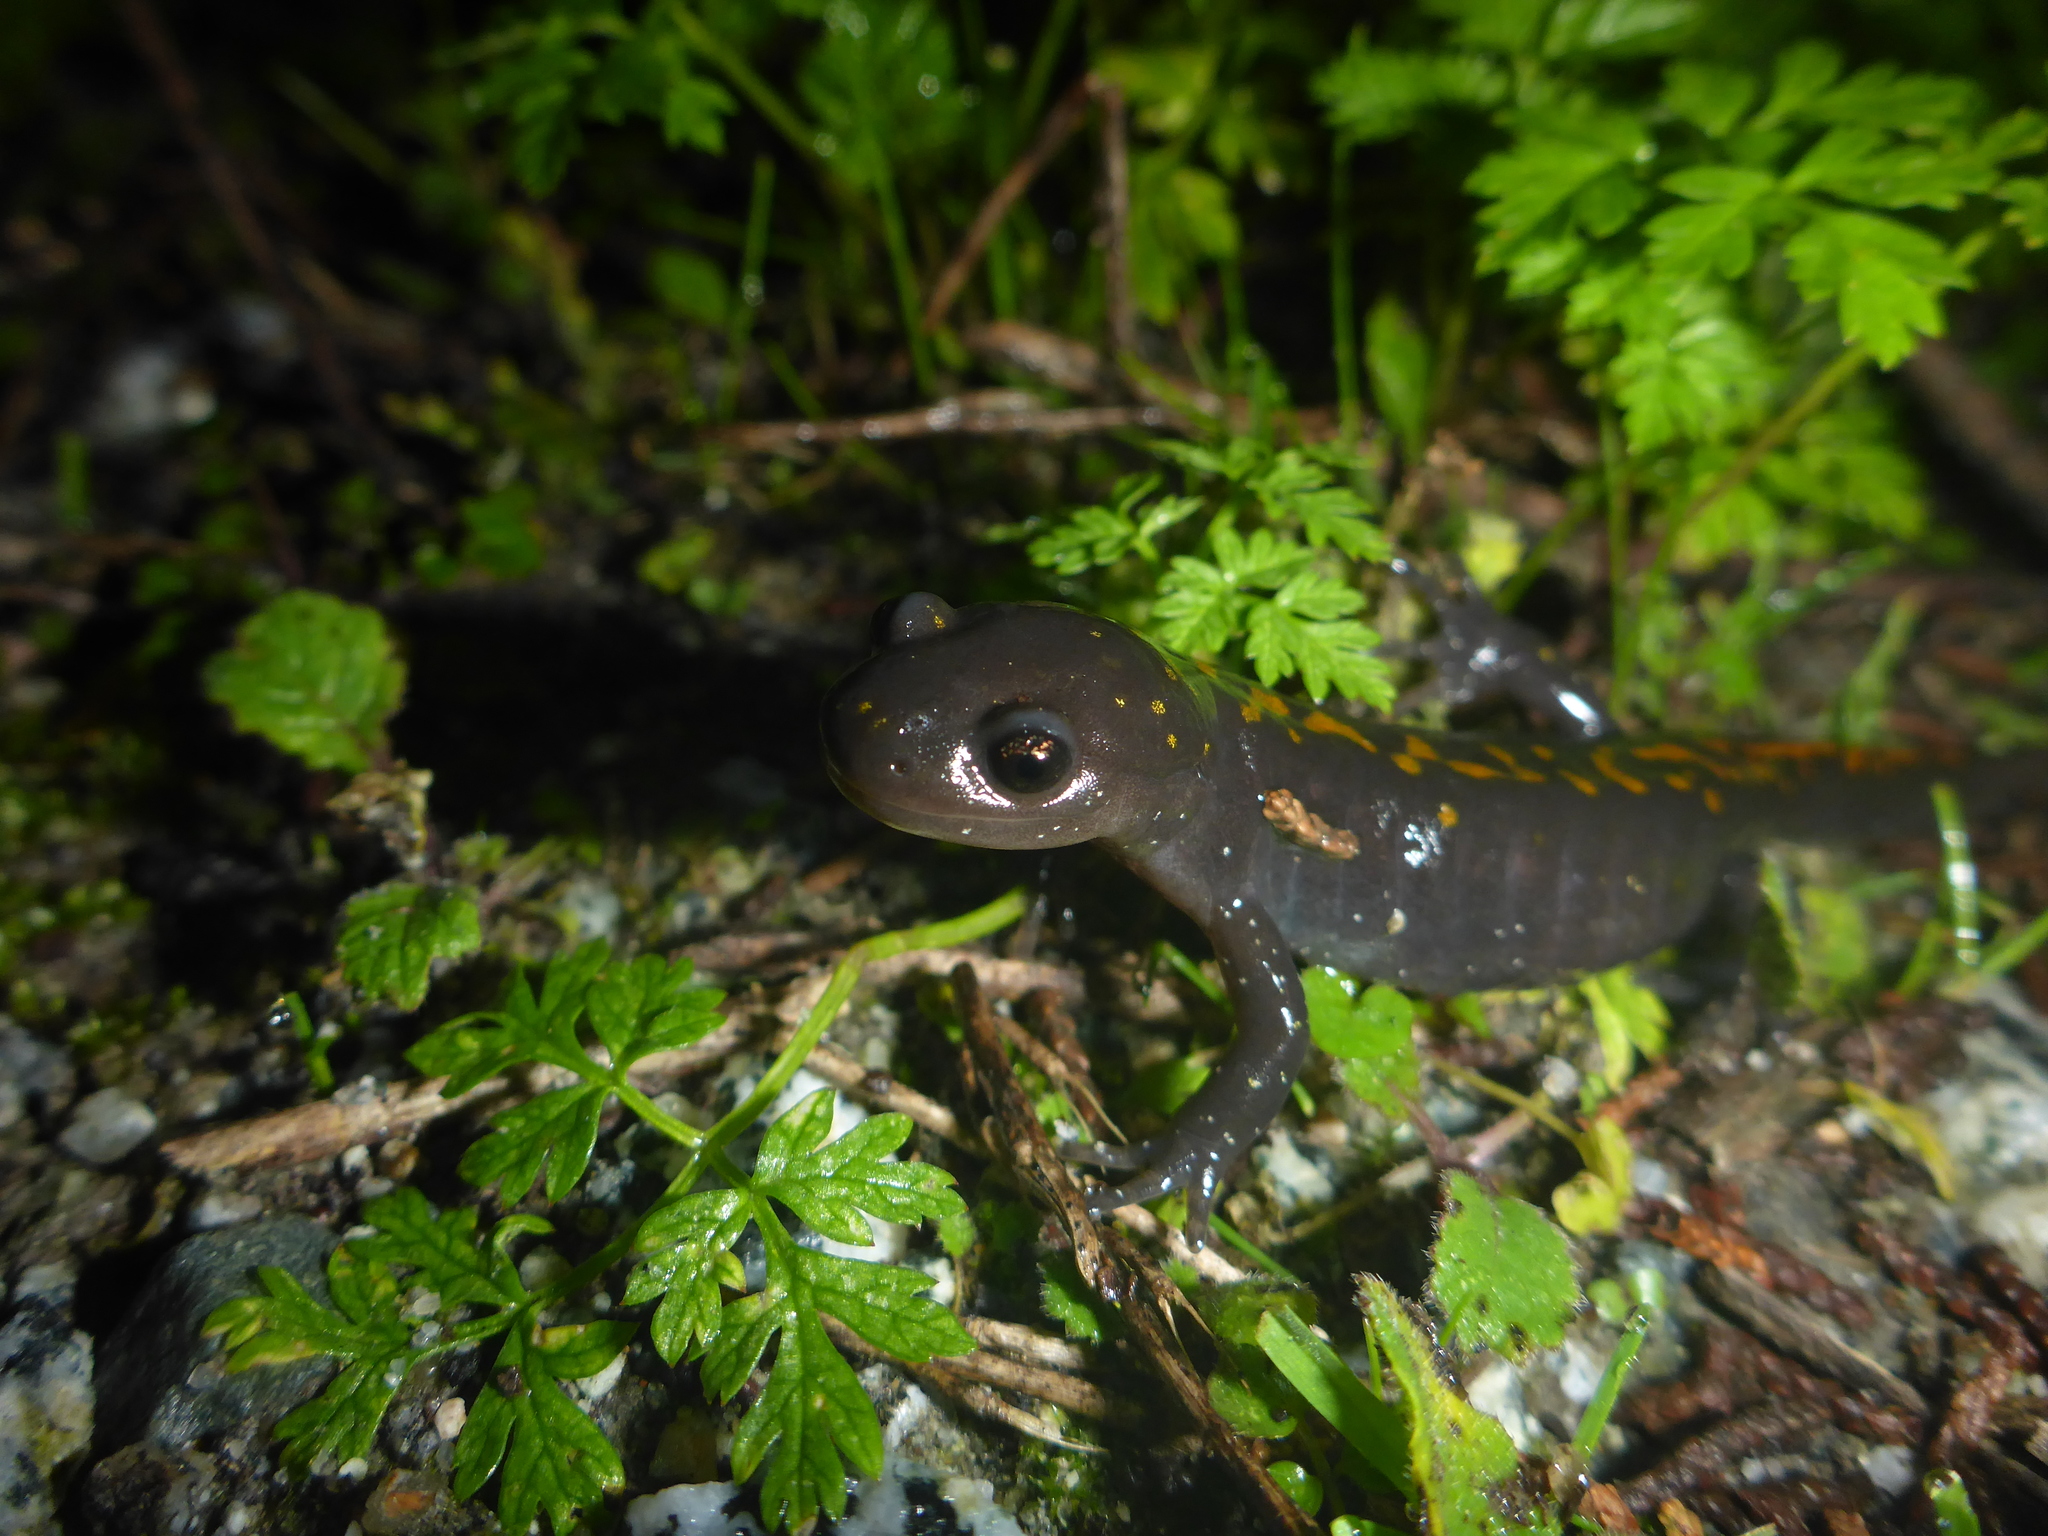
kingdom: Animalia
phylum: Chordata
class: Amphibia
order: Caudata
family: Ambystomatidae
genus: Ambystoma
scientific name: Ambystoma macrodactylum
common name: Long-toed salamander
